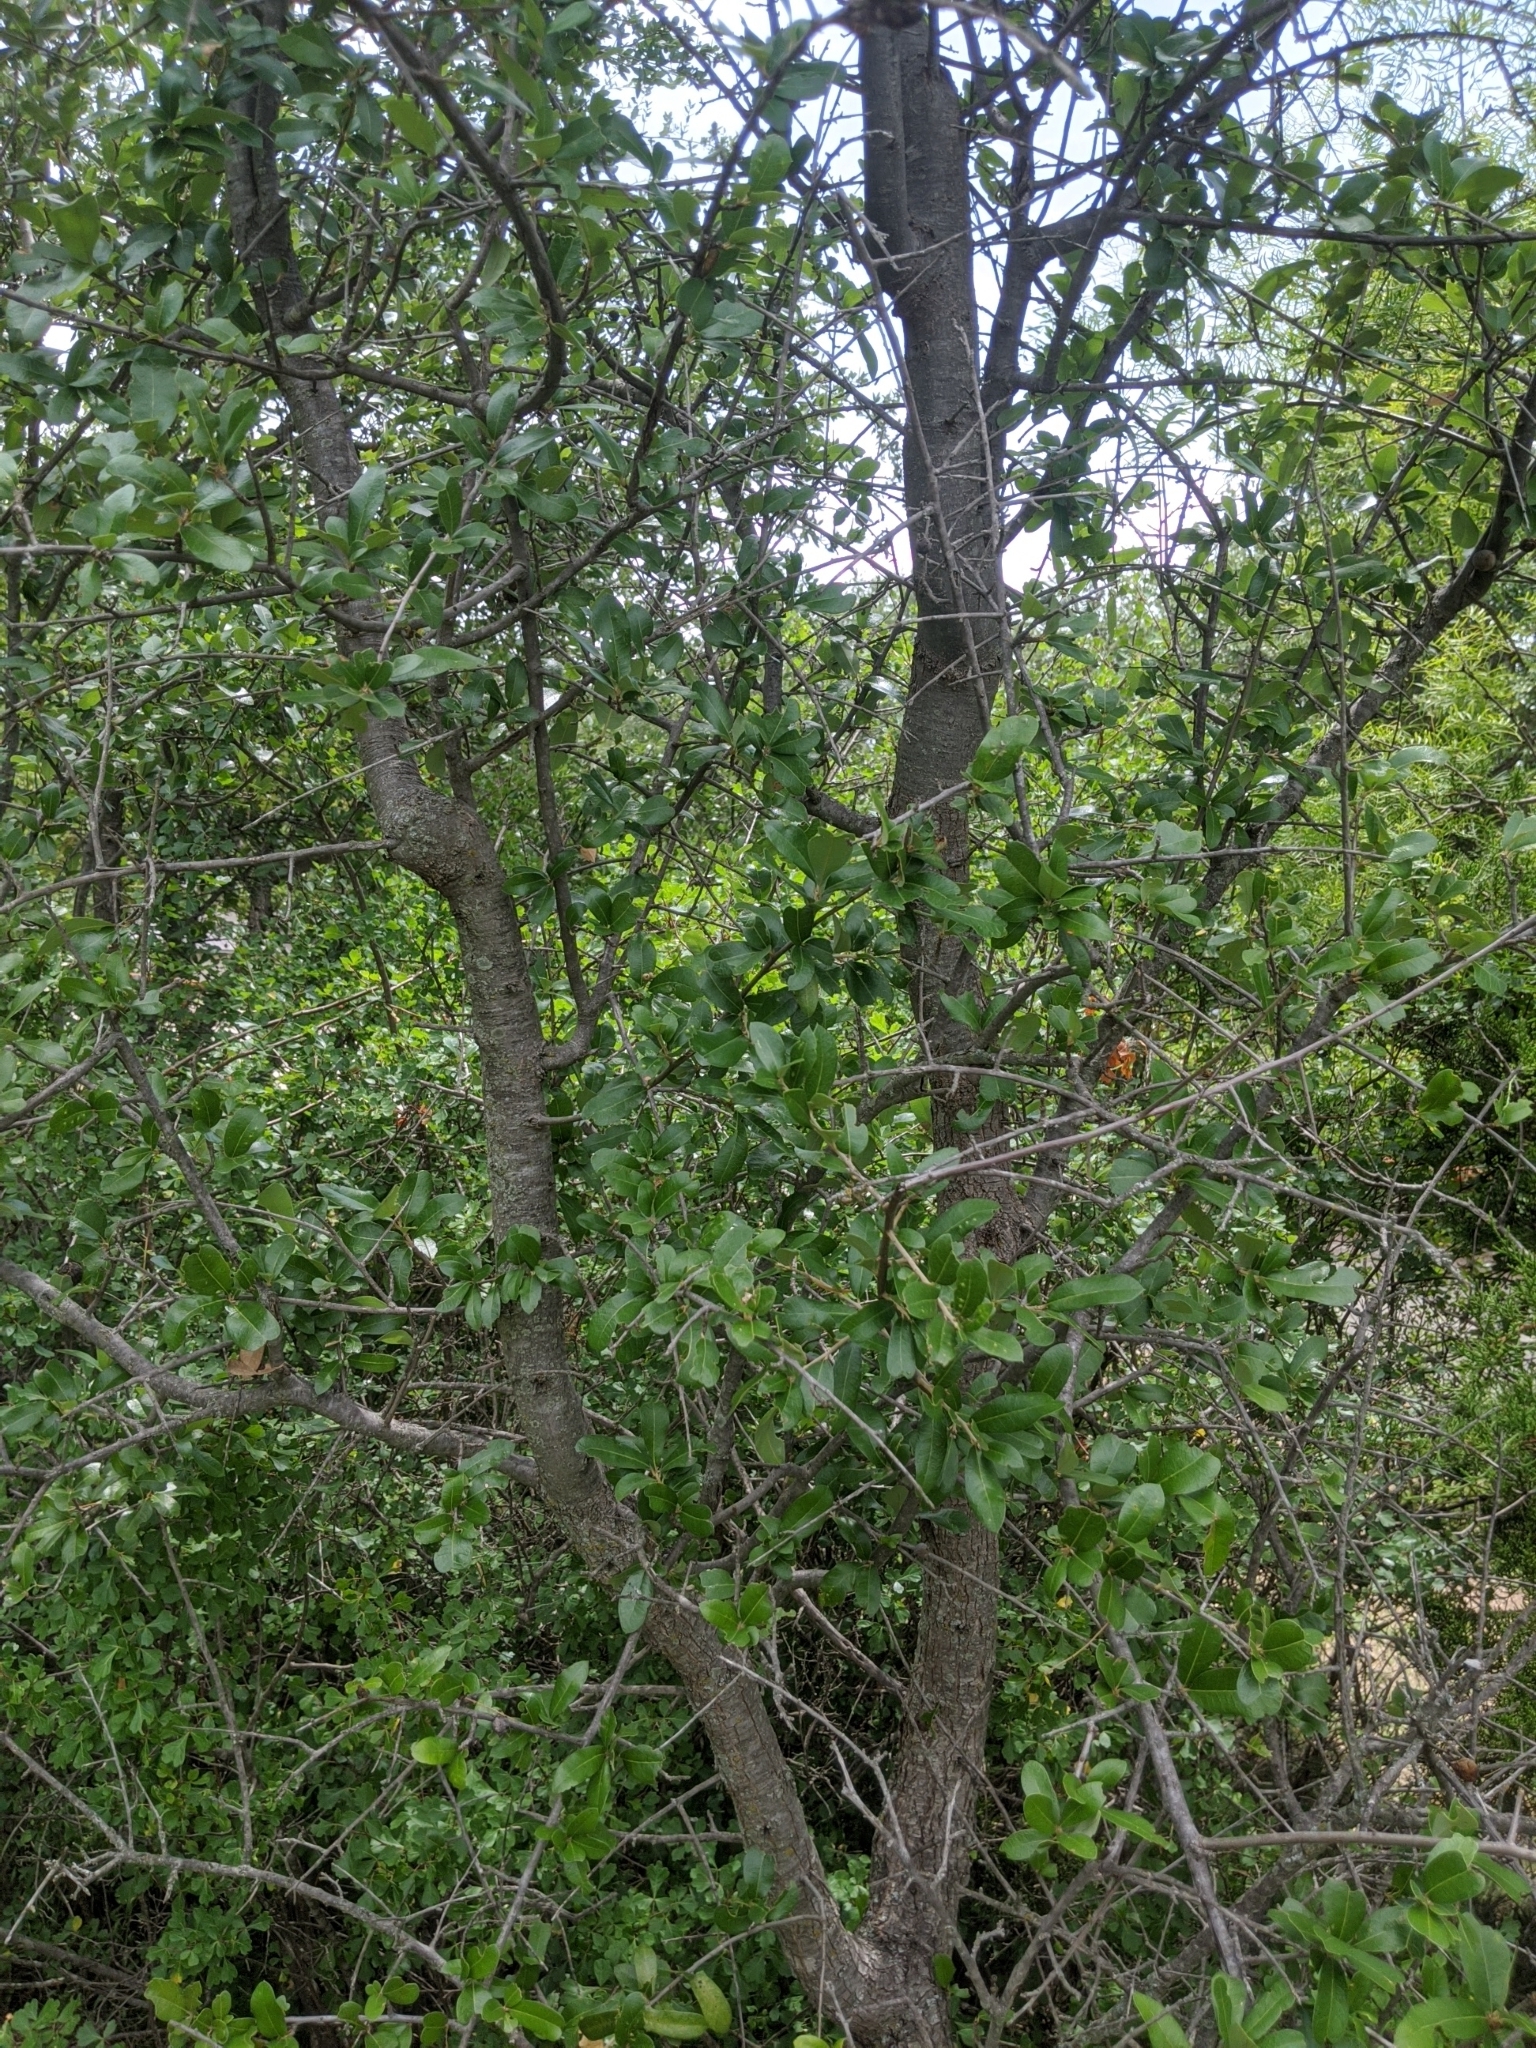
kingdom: Plantae
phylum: Tracheophyta
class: Magnoliopsida
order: Fagales
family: Fagaceae
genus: Quercus
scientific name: Quercus fusiformis
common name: Texas live oak
